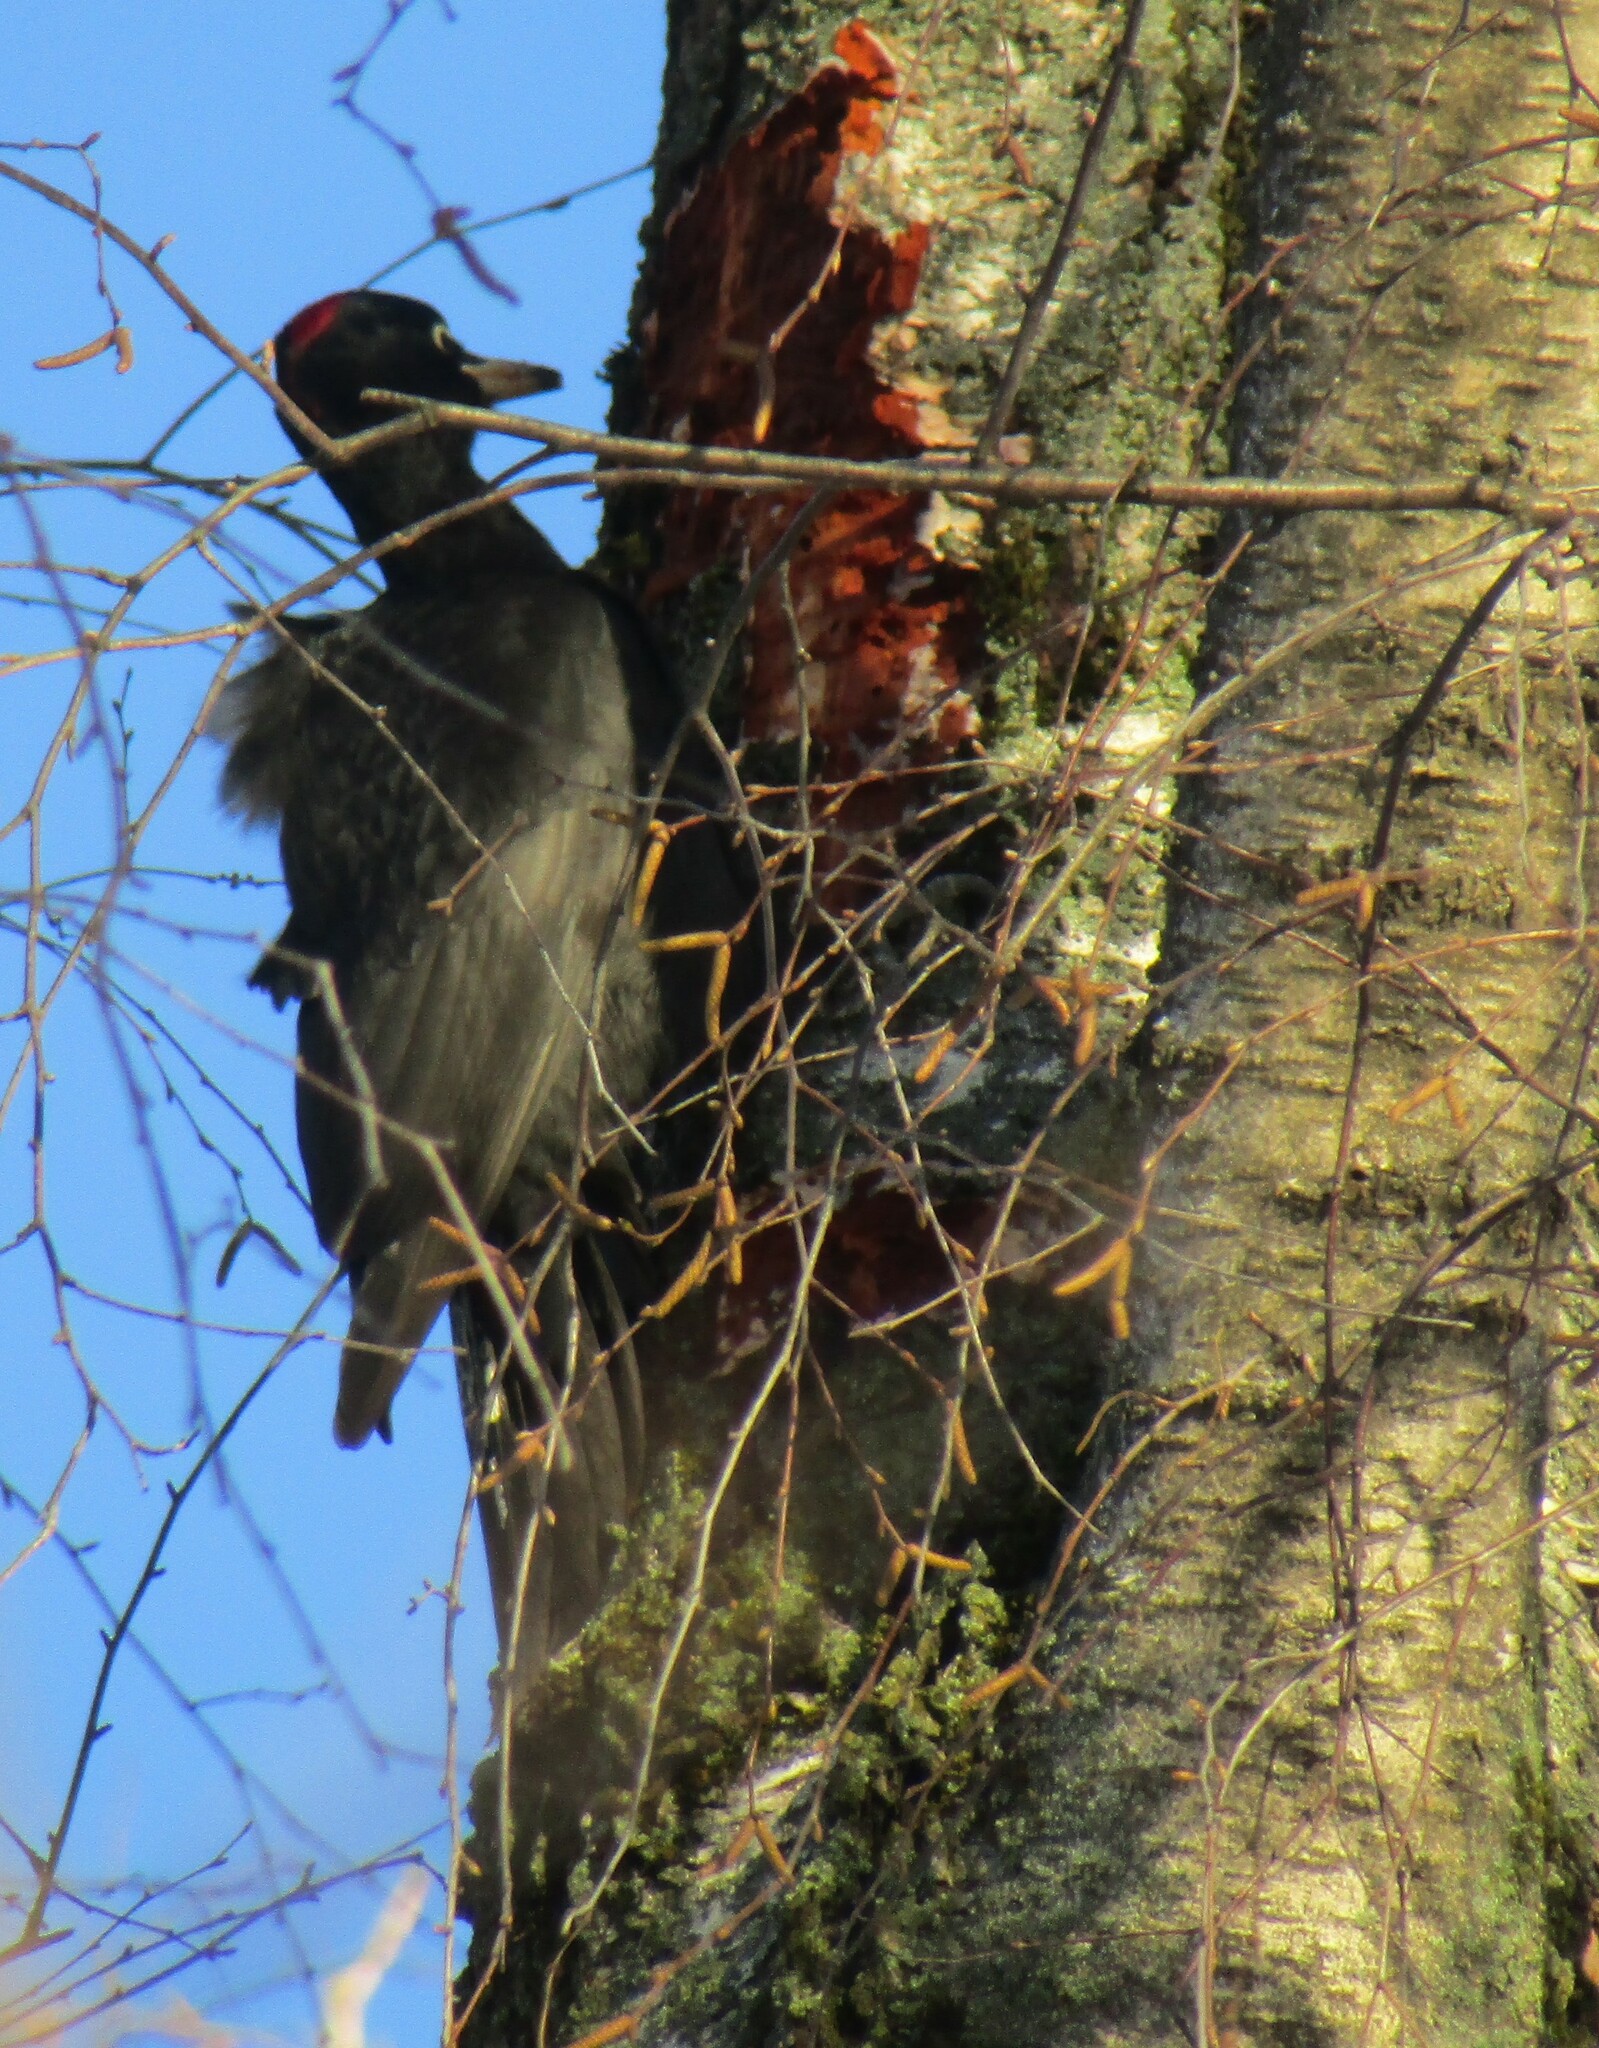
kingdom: Animalia
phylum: Chordata
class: Aves
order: Piciformes
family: Picidae
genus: Dryocopus
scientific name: Dryocopus martius
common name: Black woodpecker
